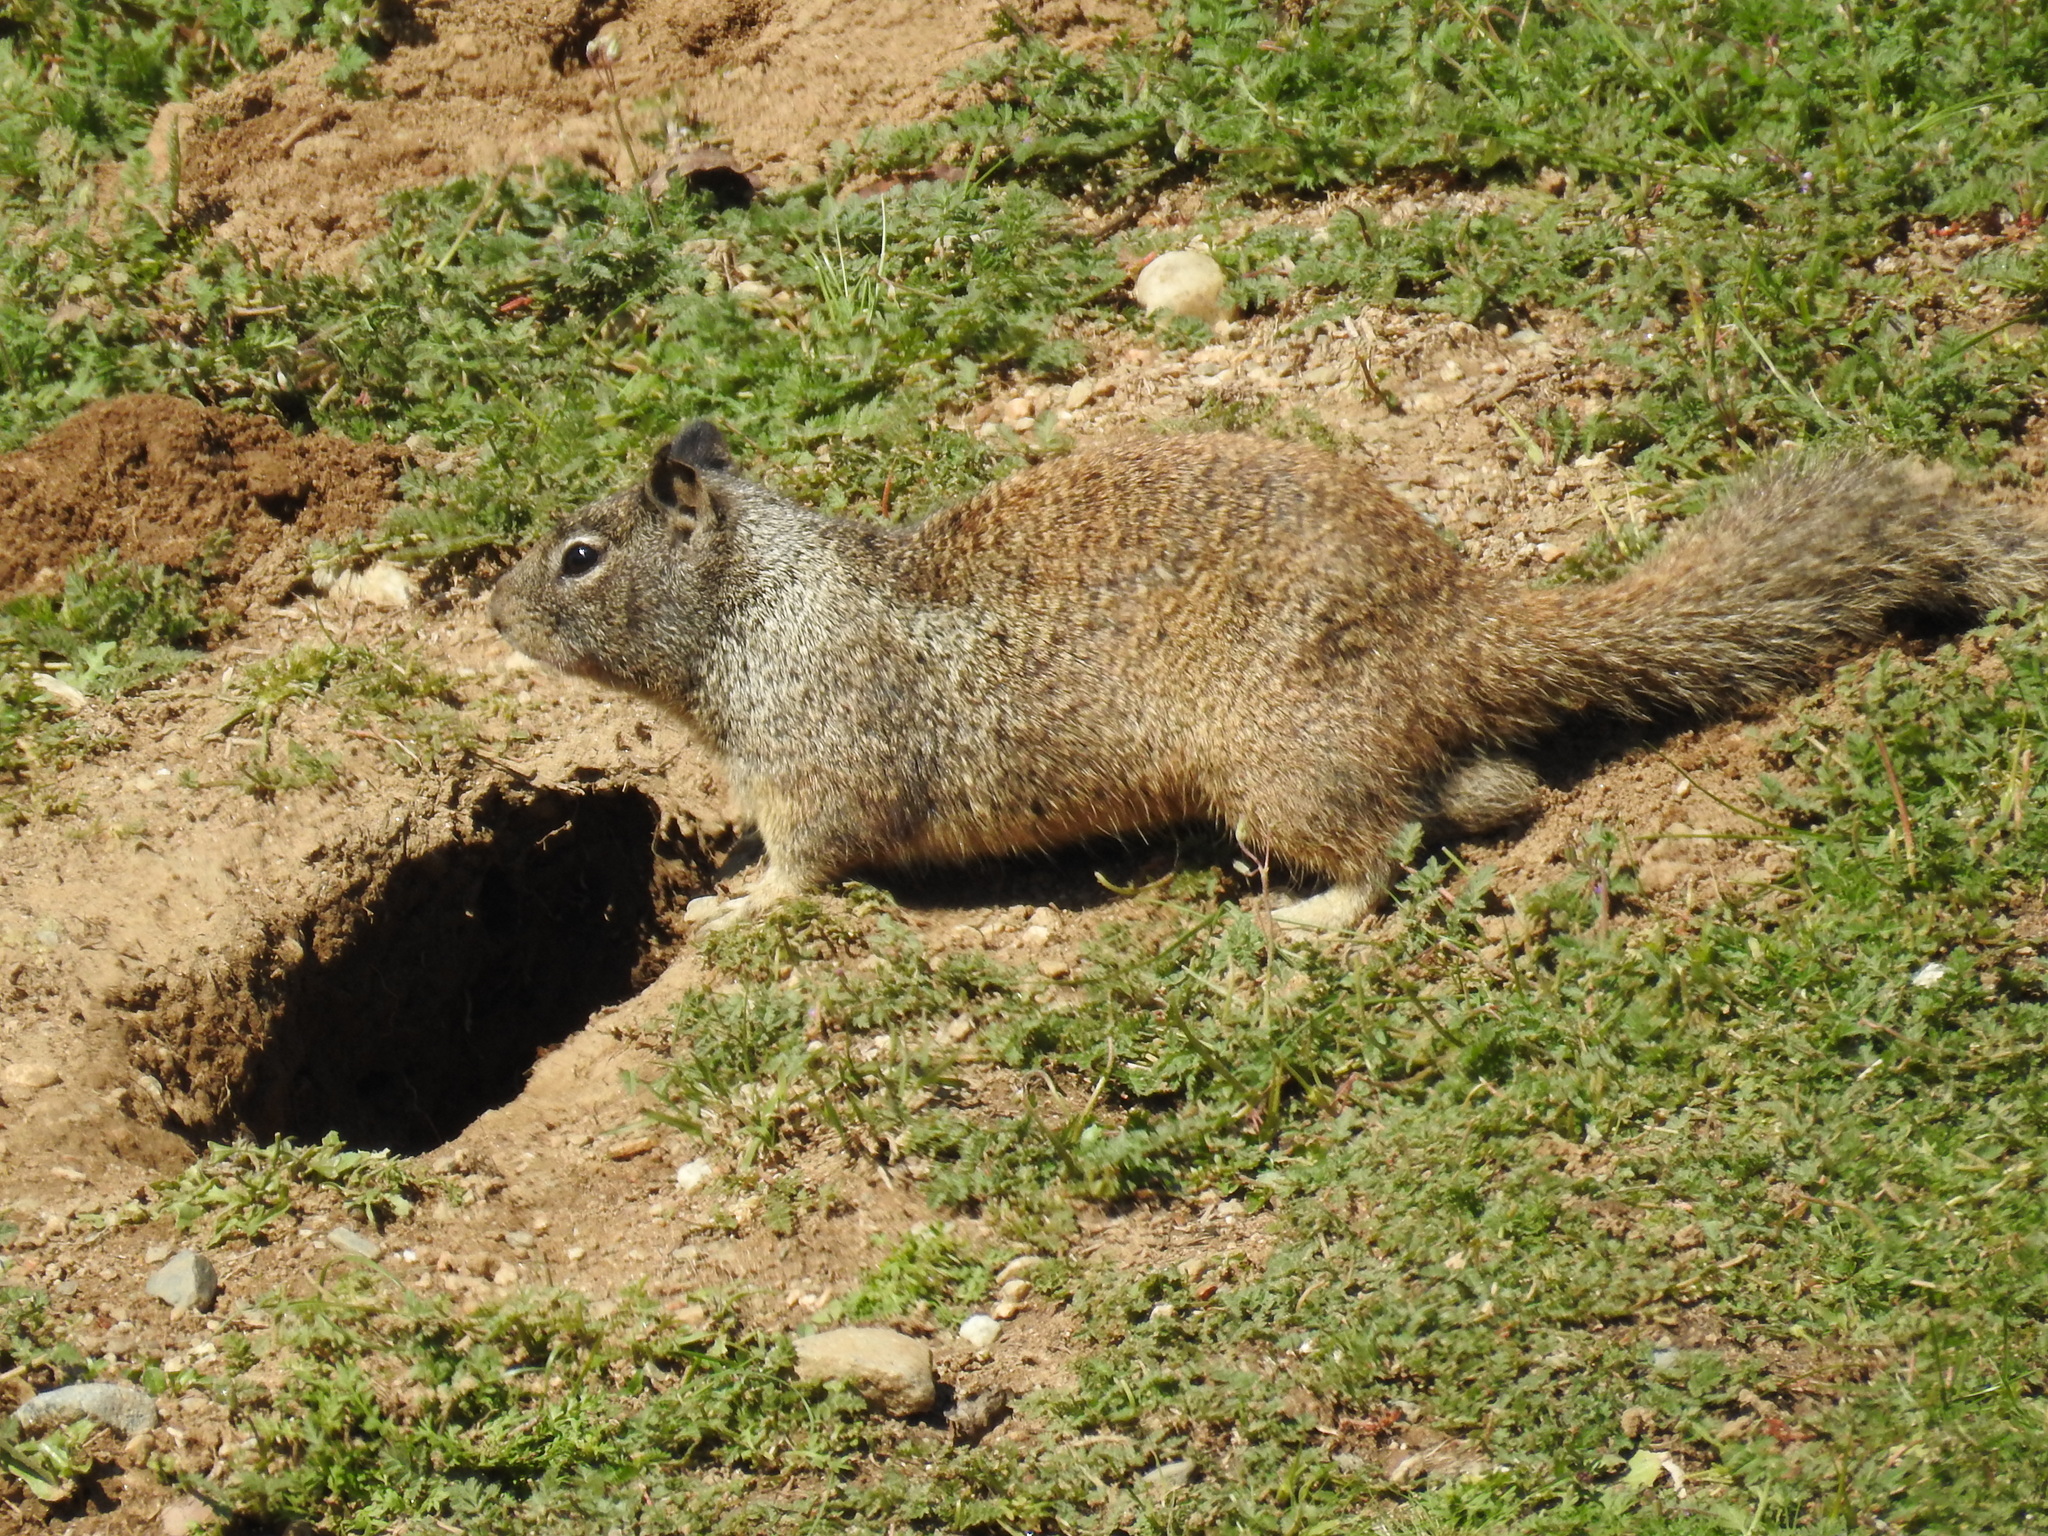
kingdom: Animalia
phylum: Chordata
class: Mammalia
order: Rodentia
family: Sciuridae
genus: Otospermophilus
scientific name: Otospermophilus beecheyi
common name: California ground squirrel
